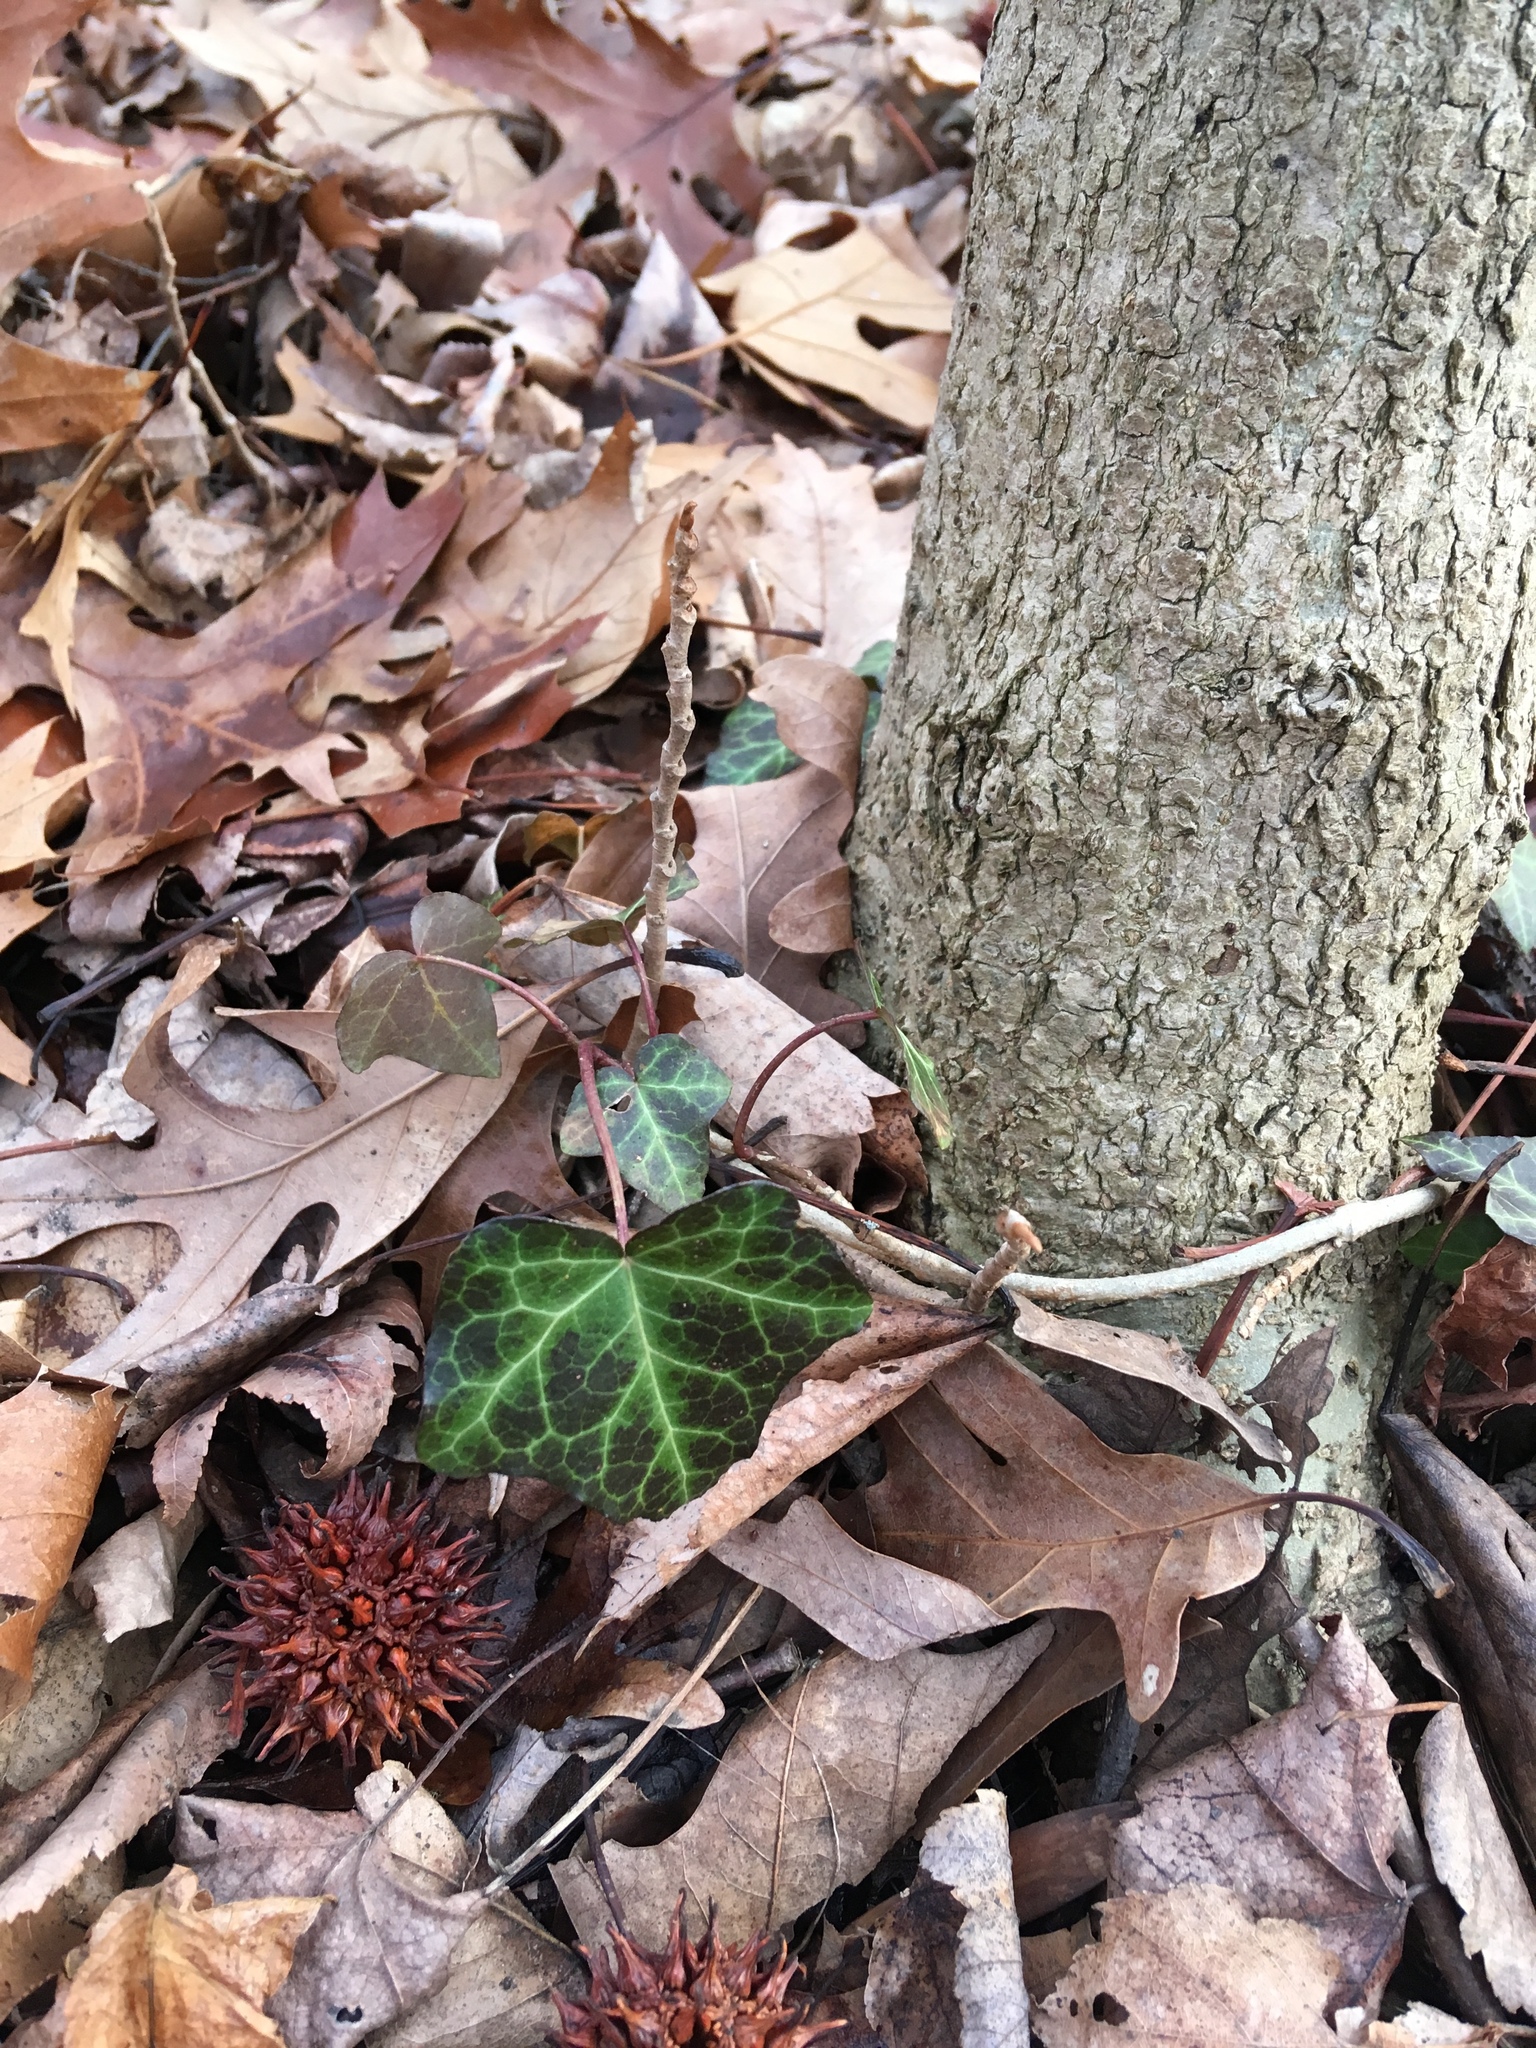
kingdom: Plantae
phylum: Tracheophyta
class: Magnoliopsida
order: Apiales
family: Araliaceae
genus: Hedera
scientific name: Hedera helix
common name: Ivy
